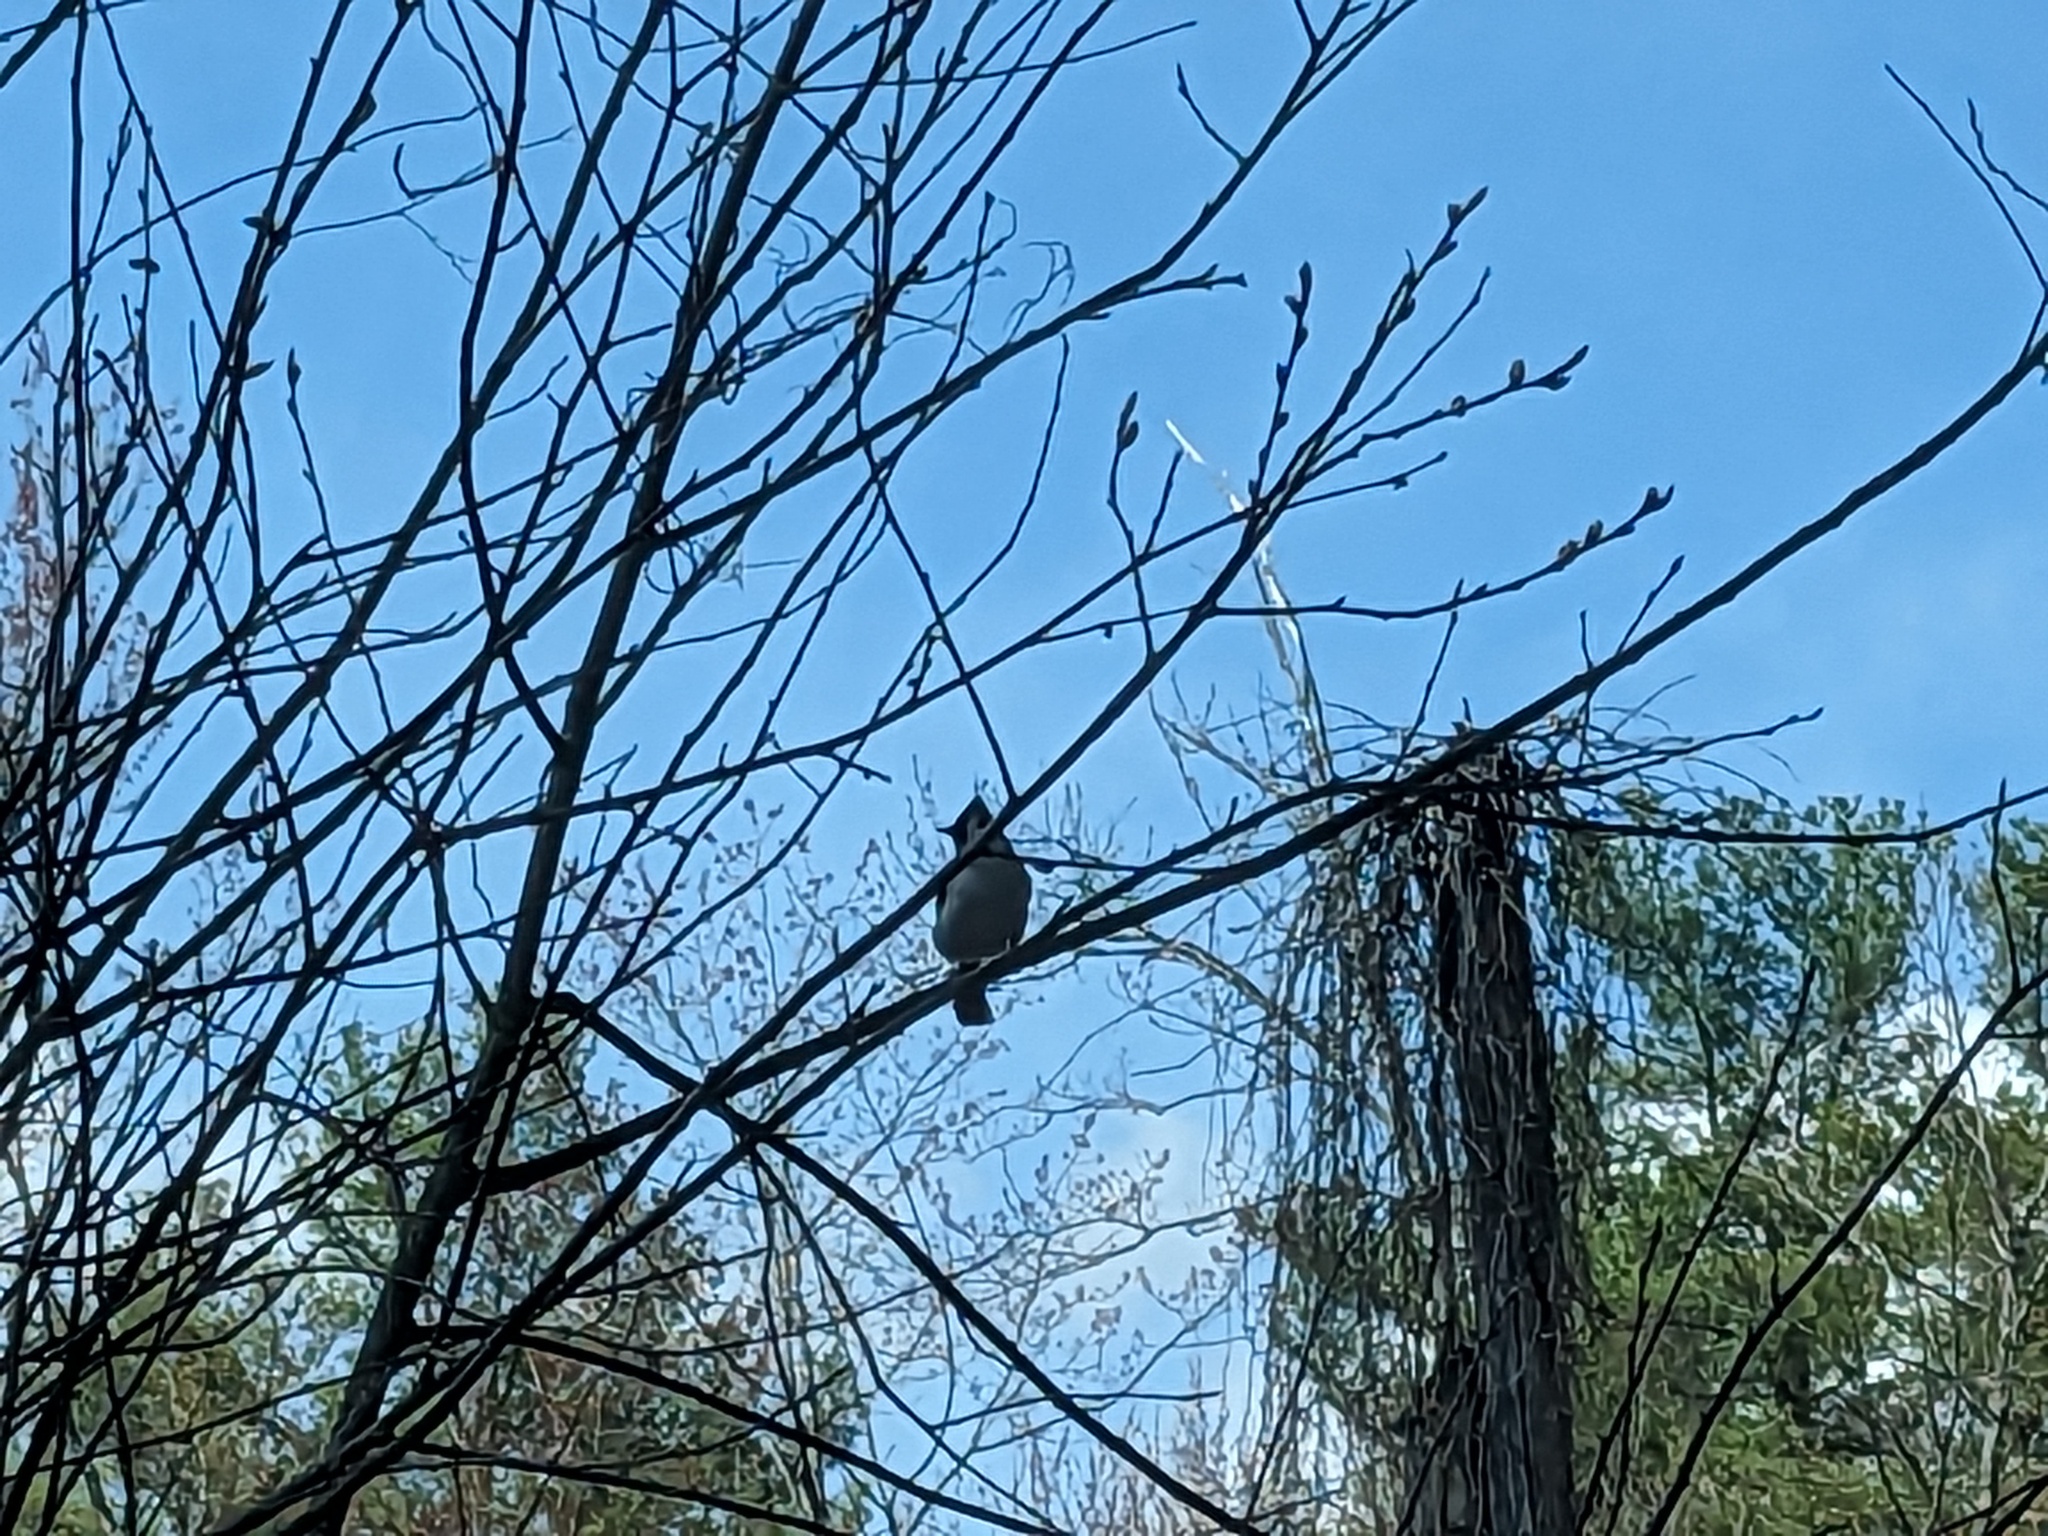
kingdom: Animalia
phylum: Chordata
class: Aves
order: Passeriformes
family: Corvidae
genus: Cyanocitta
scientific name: Cyanocitta cristata
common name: Blue jay
